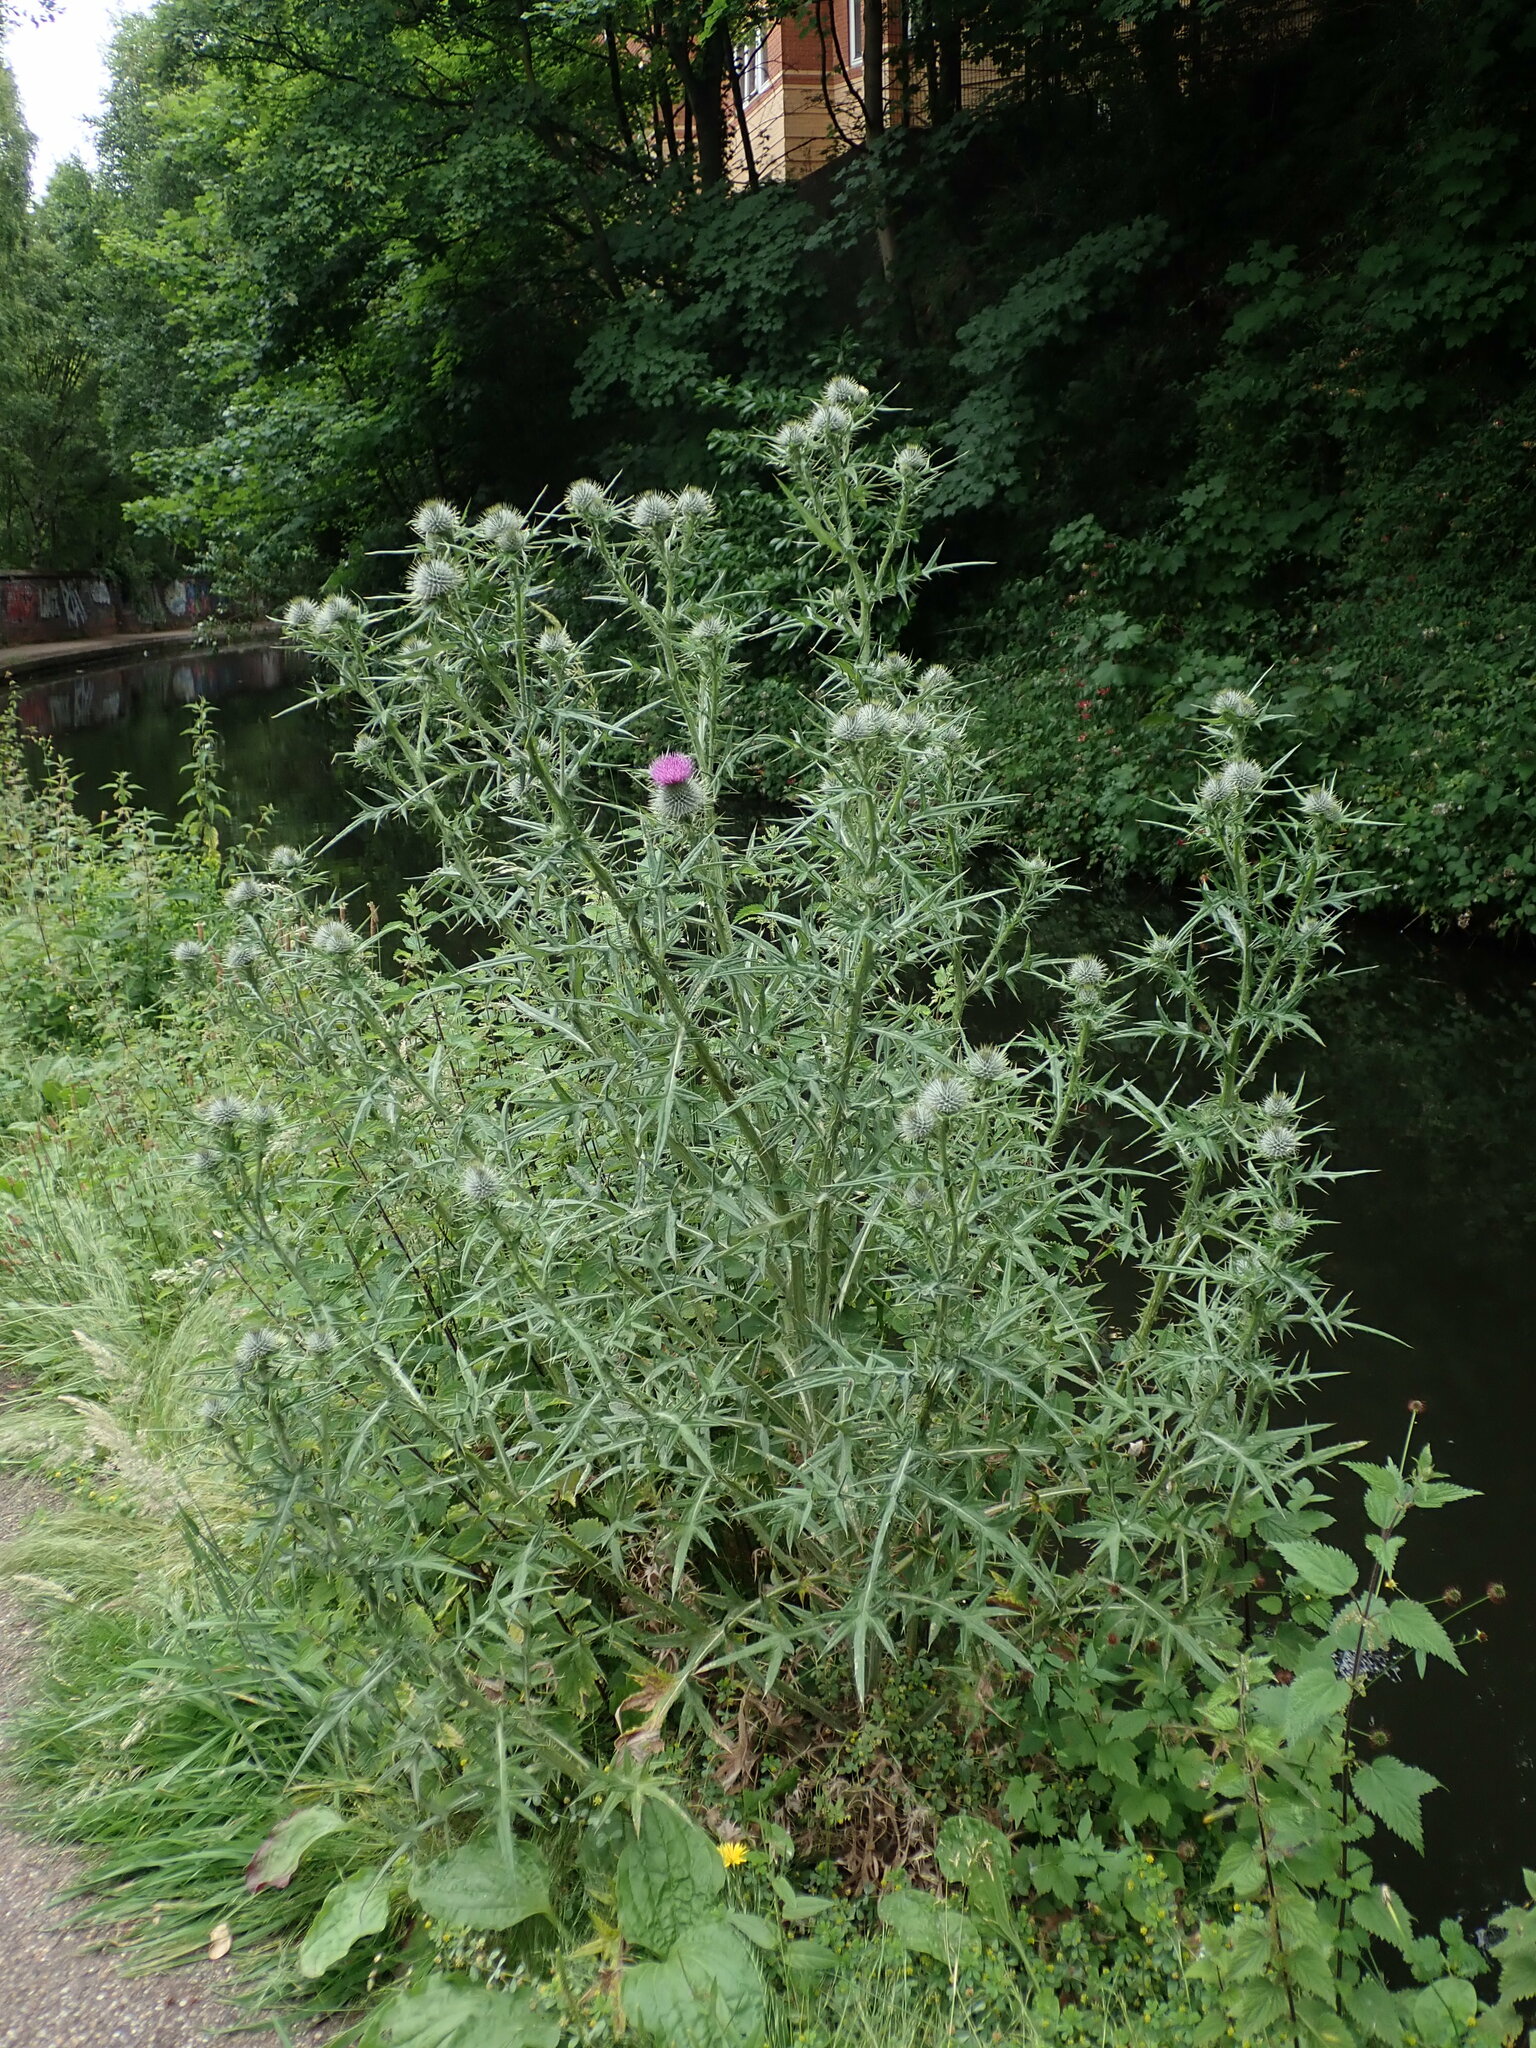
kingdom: Plantae
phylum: Tracheophyta
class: Magnoliopsida
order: Asterales
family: Asteraceae
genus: Cirsium
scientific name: Cirsium vulgare
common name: Bull thistle
